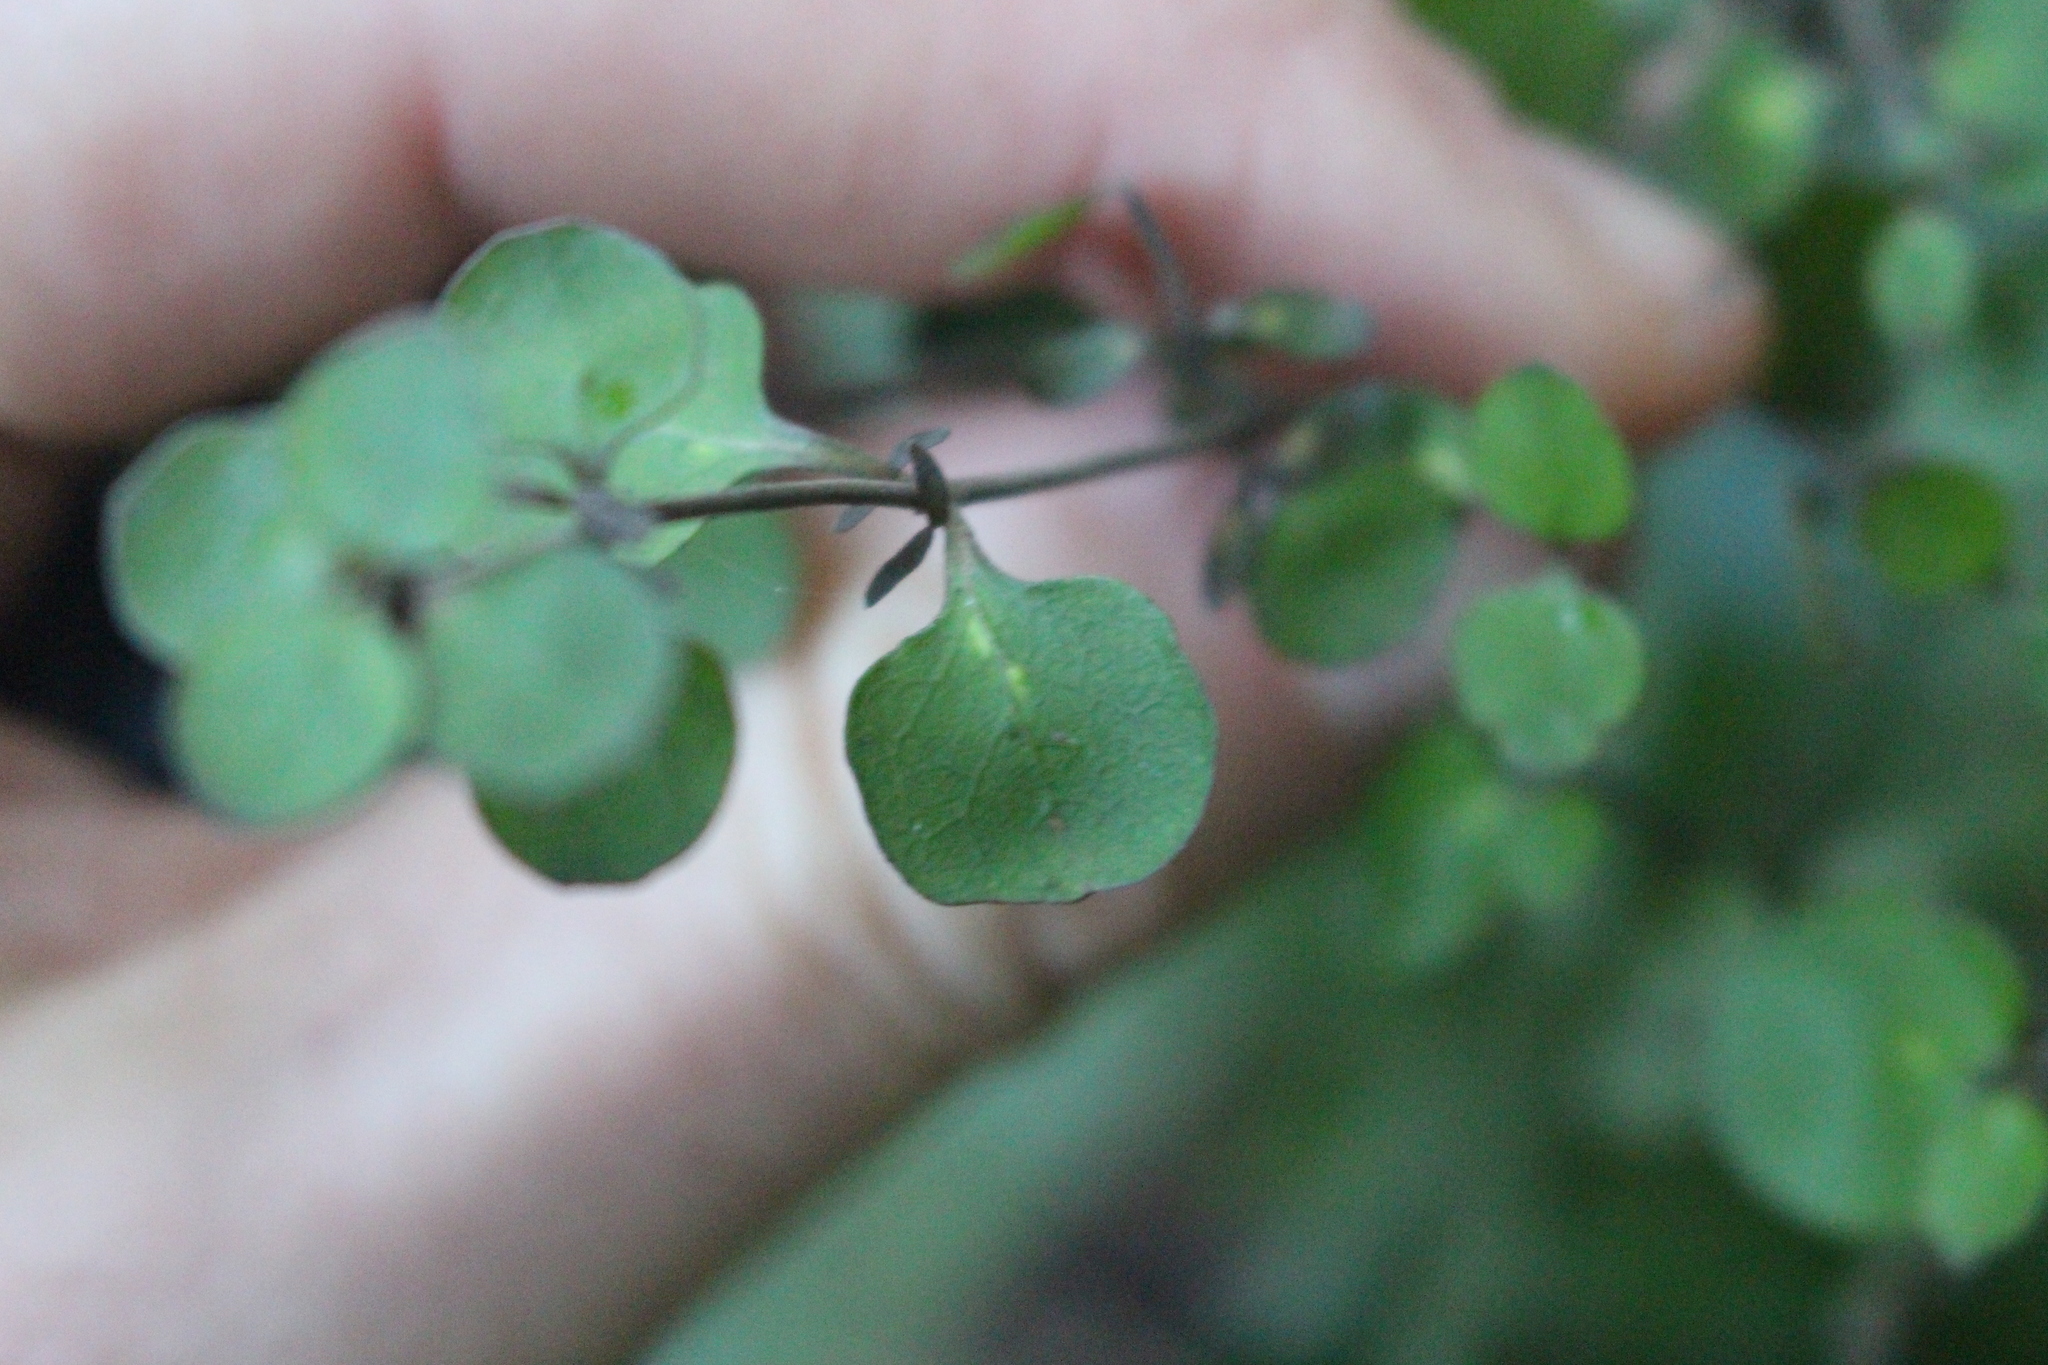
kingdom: Plantae
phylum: Tracheophyta
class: Magnoliopsida
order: Gentianales
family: Rubiaceae
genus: Coprosma
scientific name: Coprosma rhamnoides
